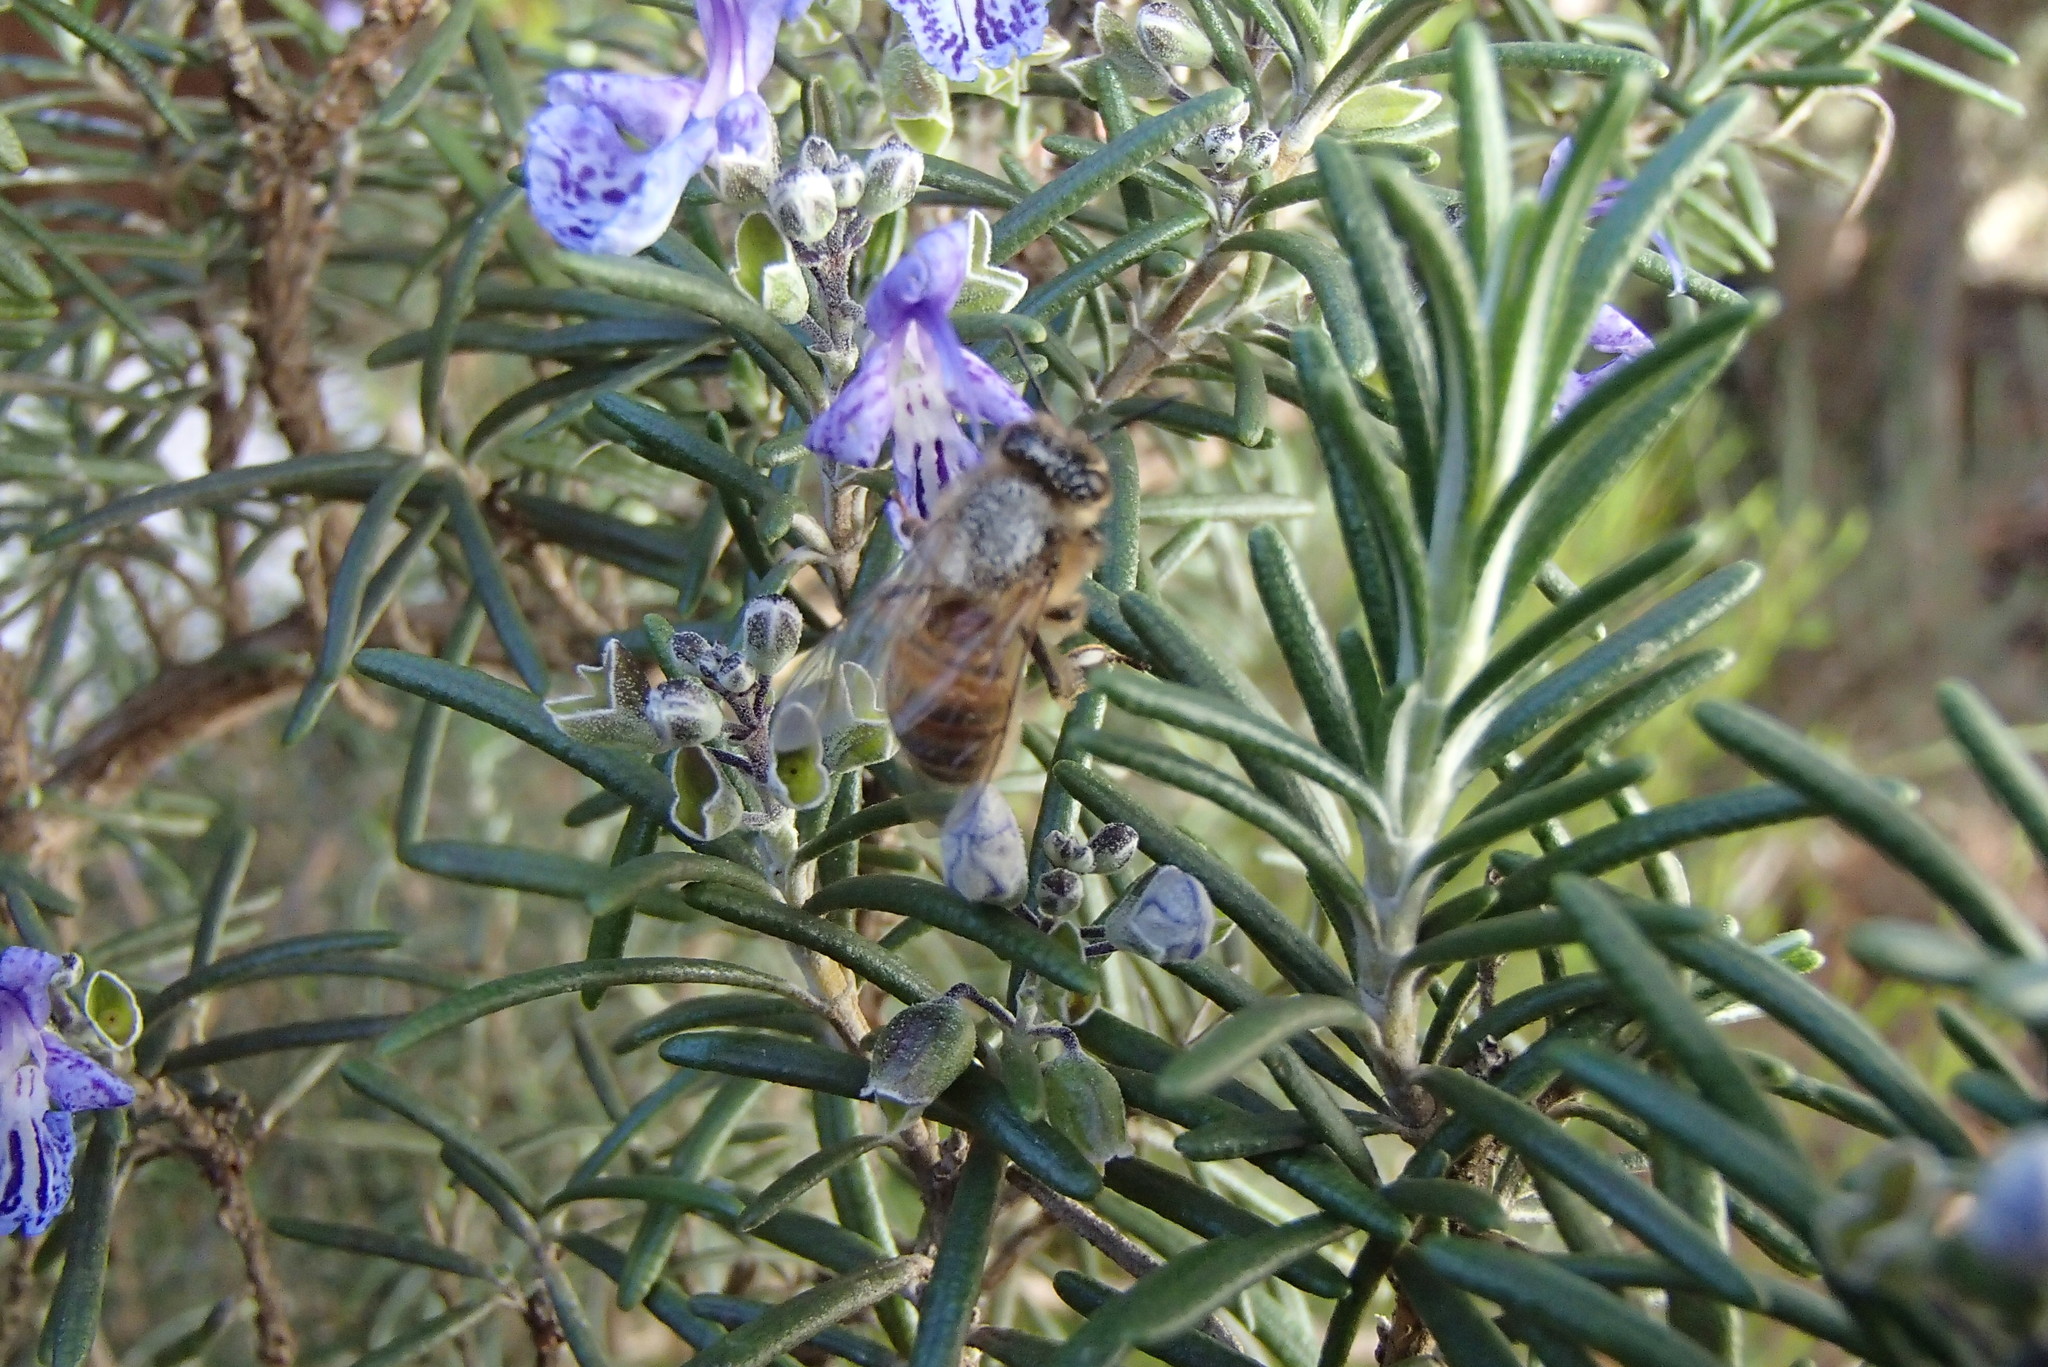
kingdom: Animalia
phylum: Arthropoda
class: Insecta
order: Hymenoptera
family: Apidae
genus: Apis
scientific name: Apis mellifera
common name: Honey bee
